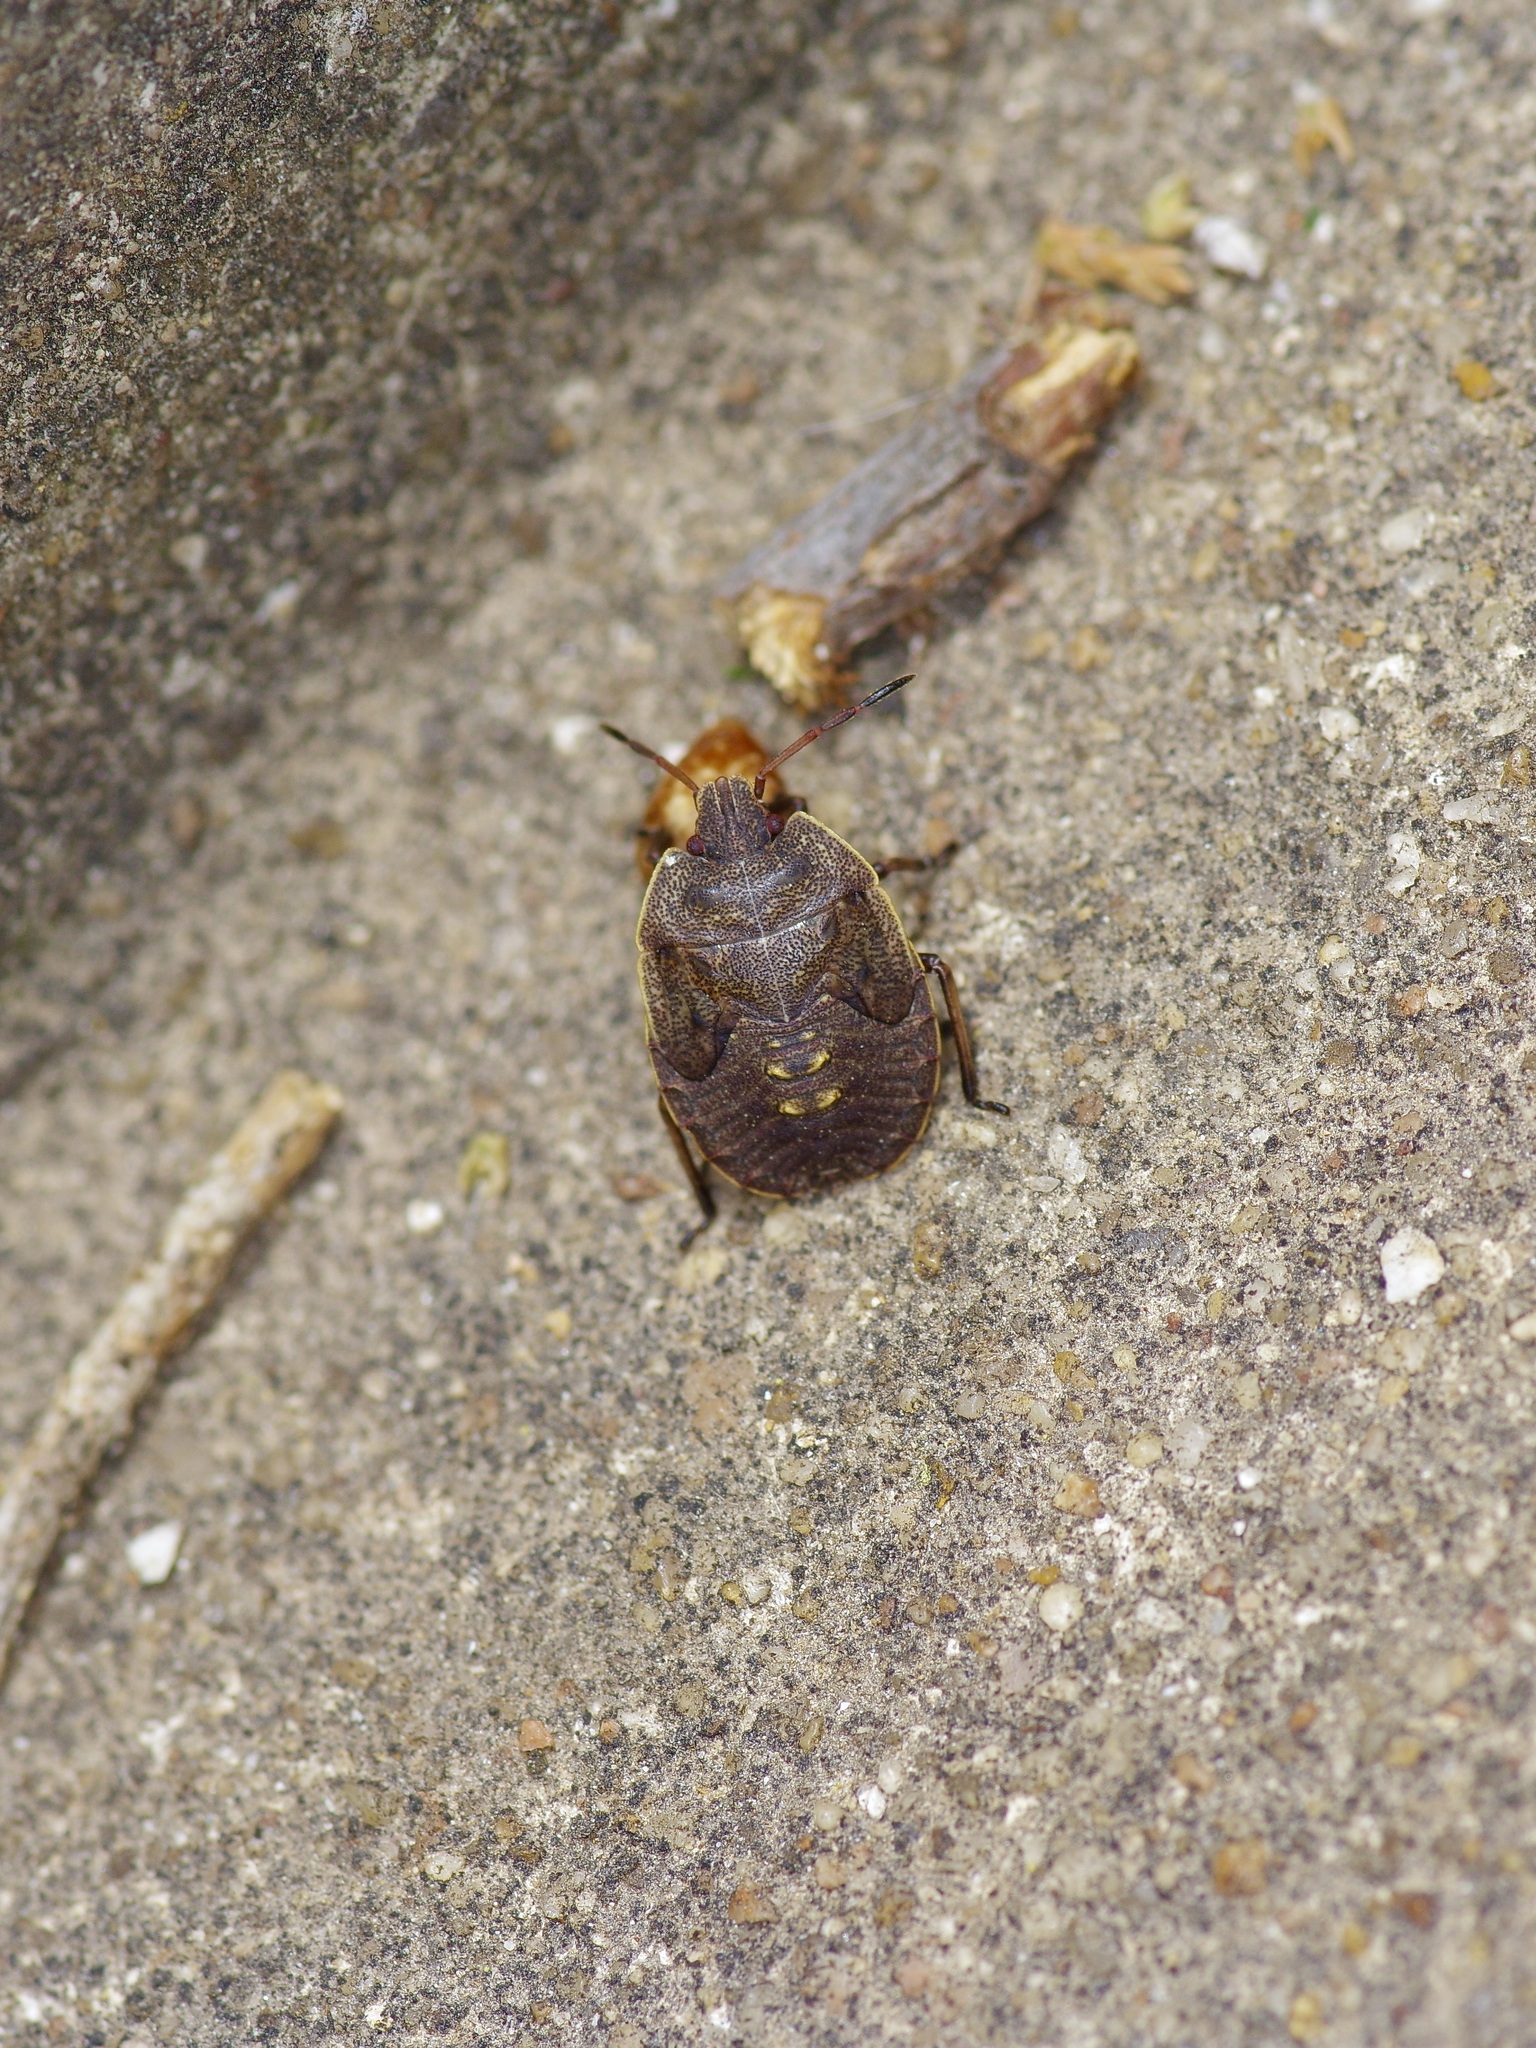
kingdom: Animalia
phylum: Arthropoda
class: Insecta
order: Hemiptera
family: Pentatomidae
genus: Menecles
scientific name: Menecles insertus
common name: Elf shoe stink bug
